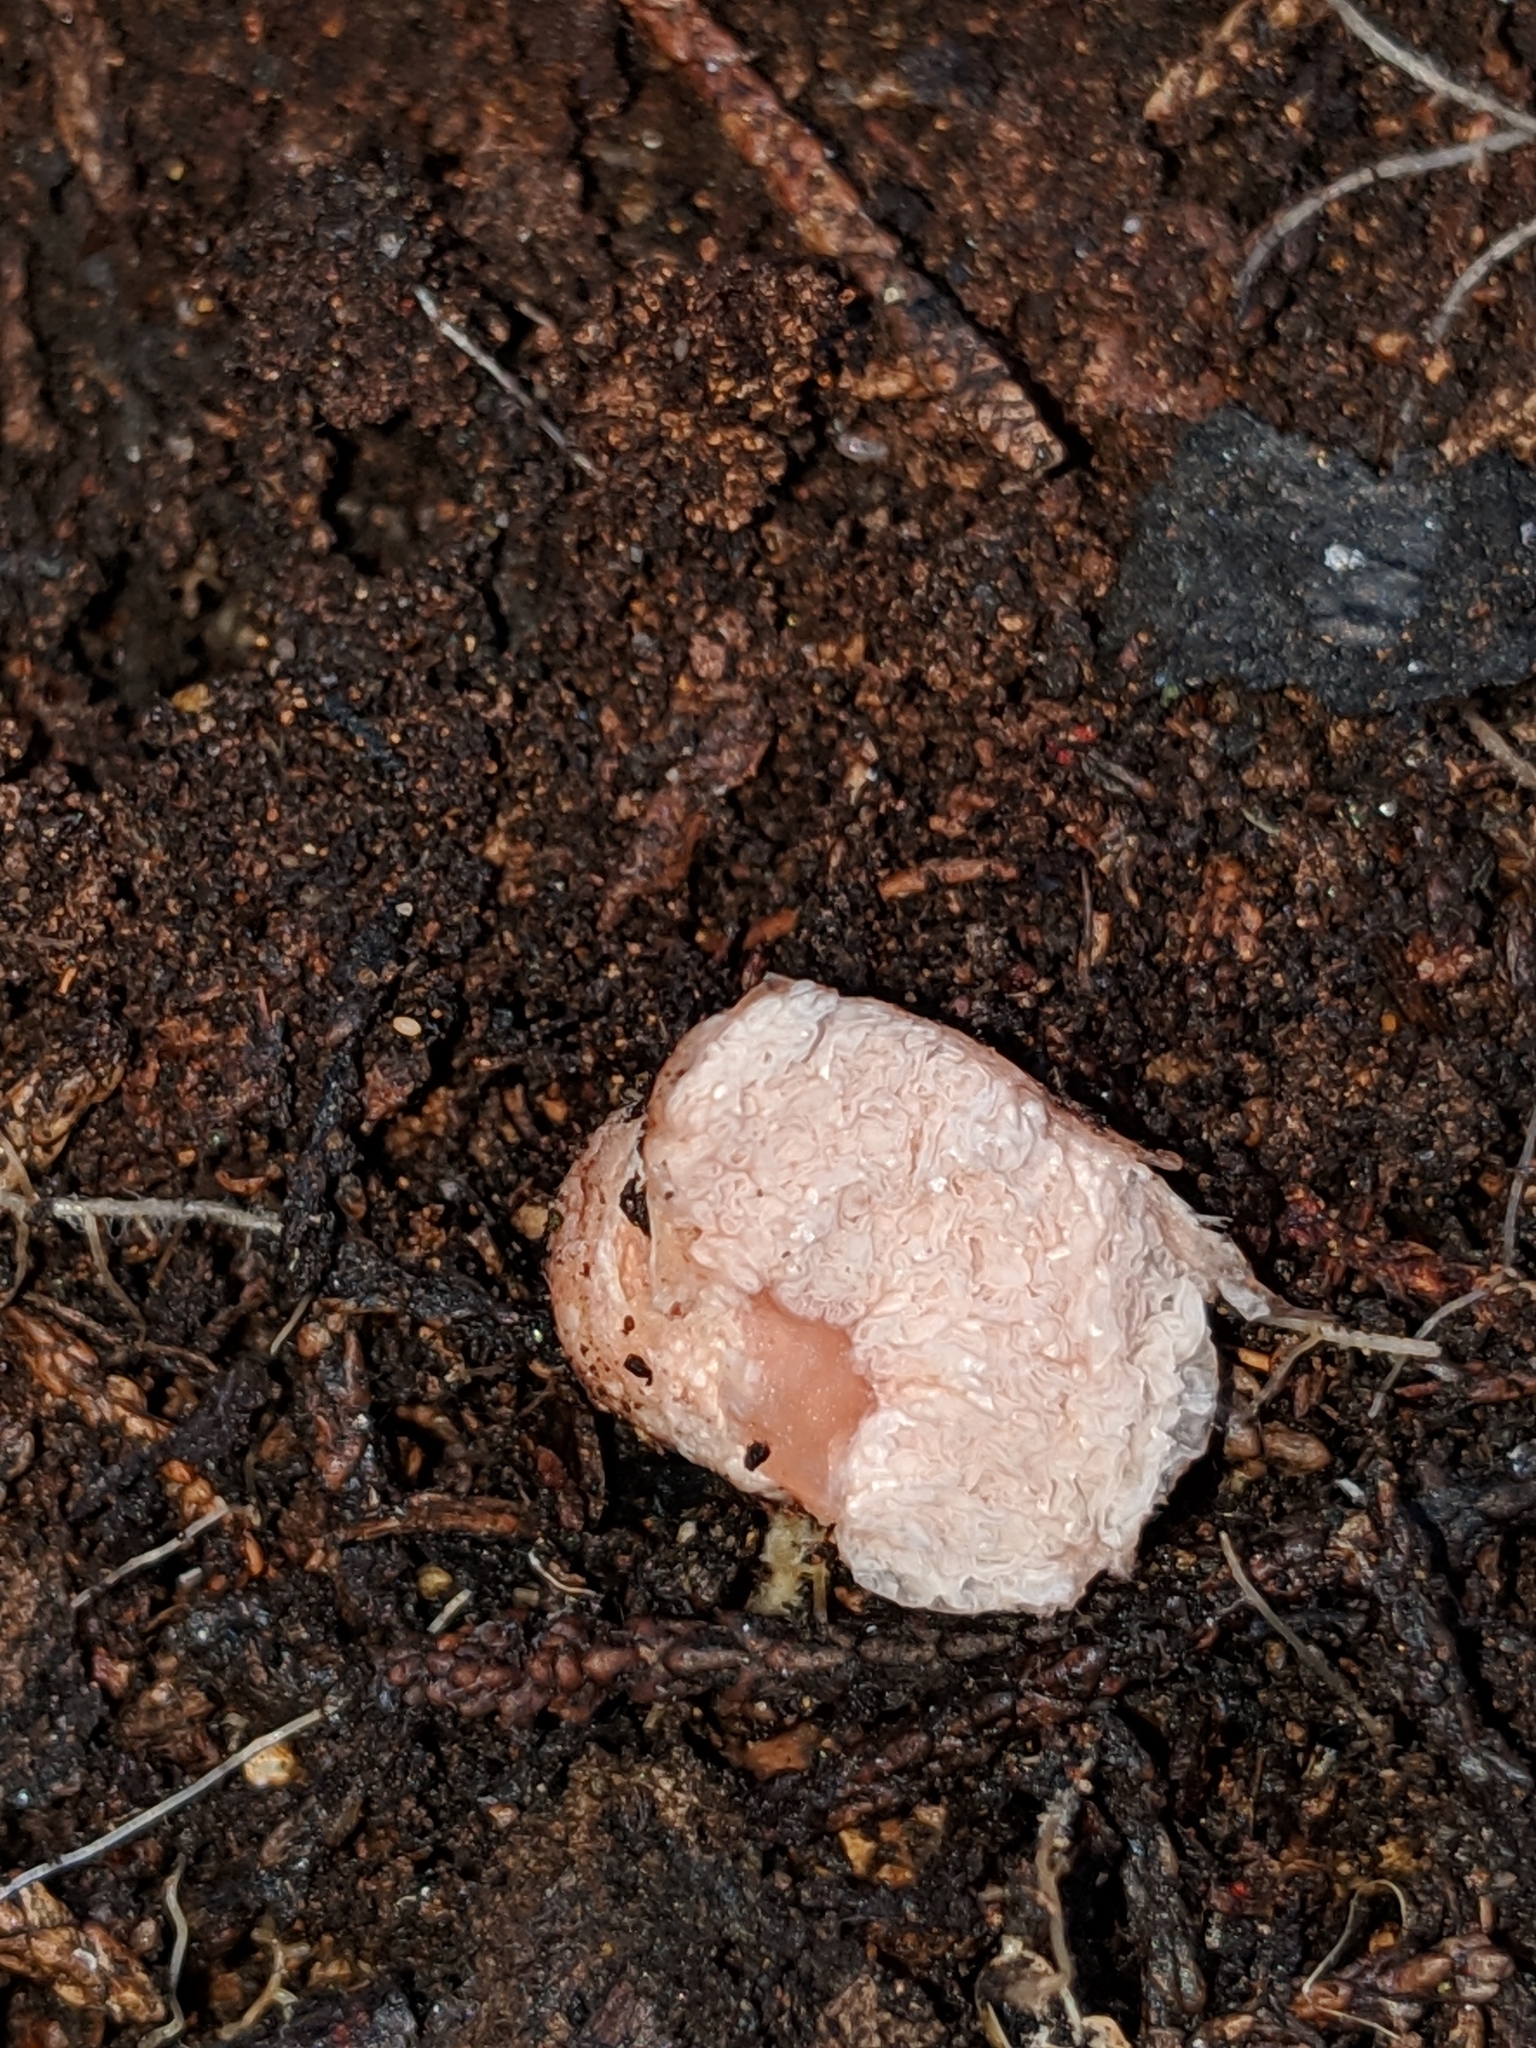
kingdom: Fungi
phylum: Basidiomycota
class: Agaricomycetes
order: Agaricales
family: Hydnangiaceae
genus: Hydnangium
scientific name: Hydnangium carneum
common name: Flesh-pink truffle
